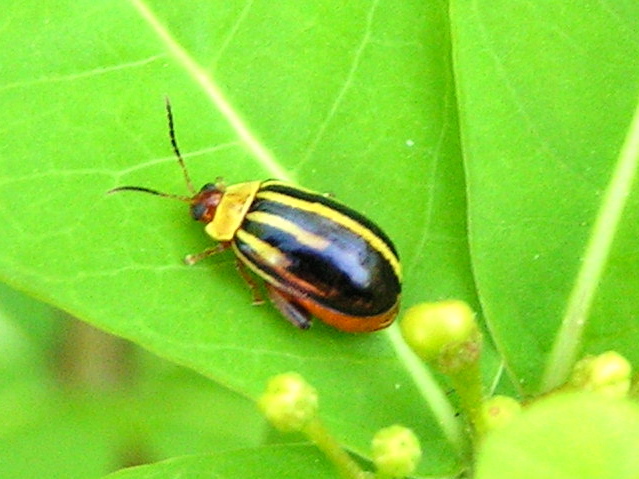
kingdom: Animalia
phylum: Arthropoda
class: Insecta
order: Coleoptera
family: Chrysomelidae
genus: Alagoasa
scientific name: Alagoasa
